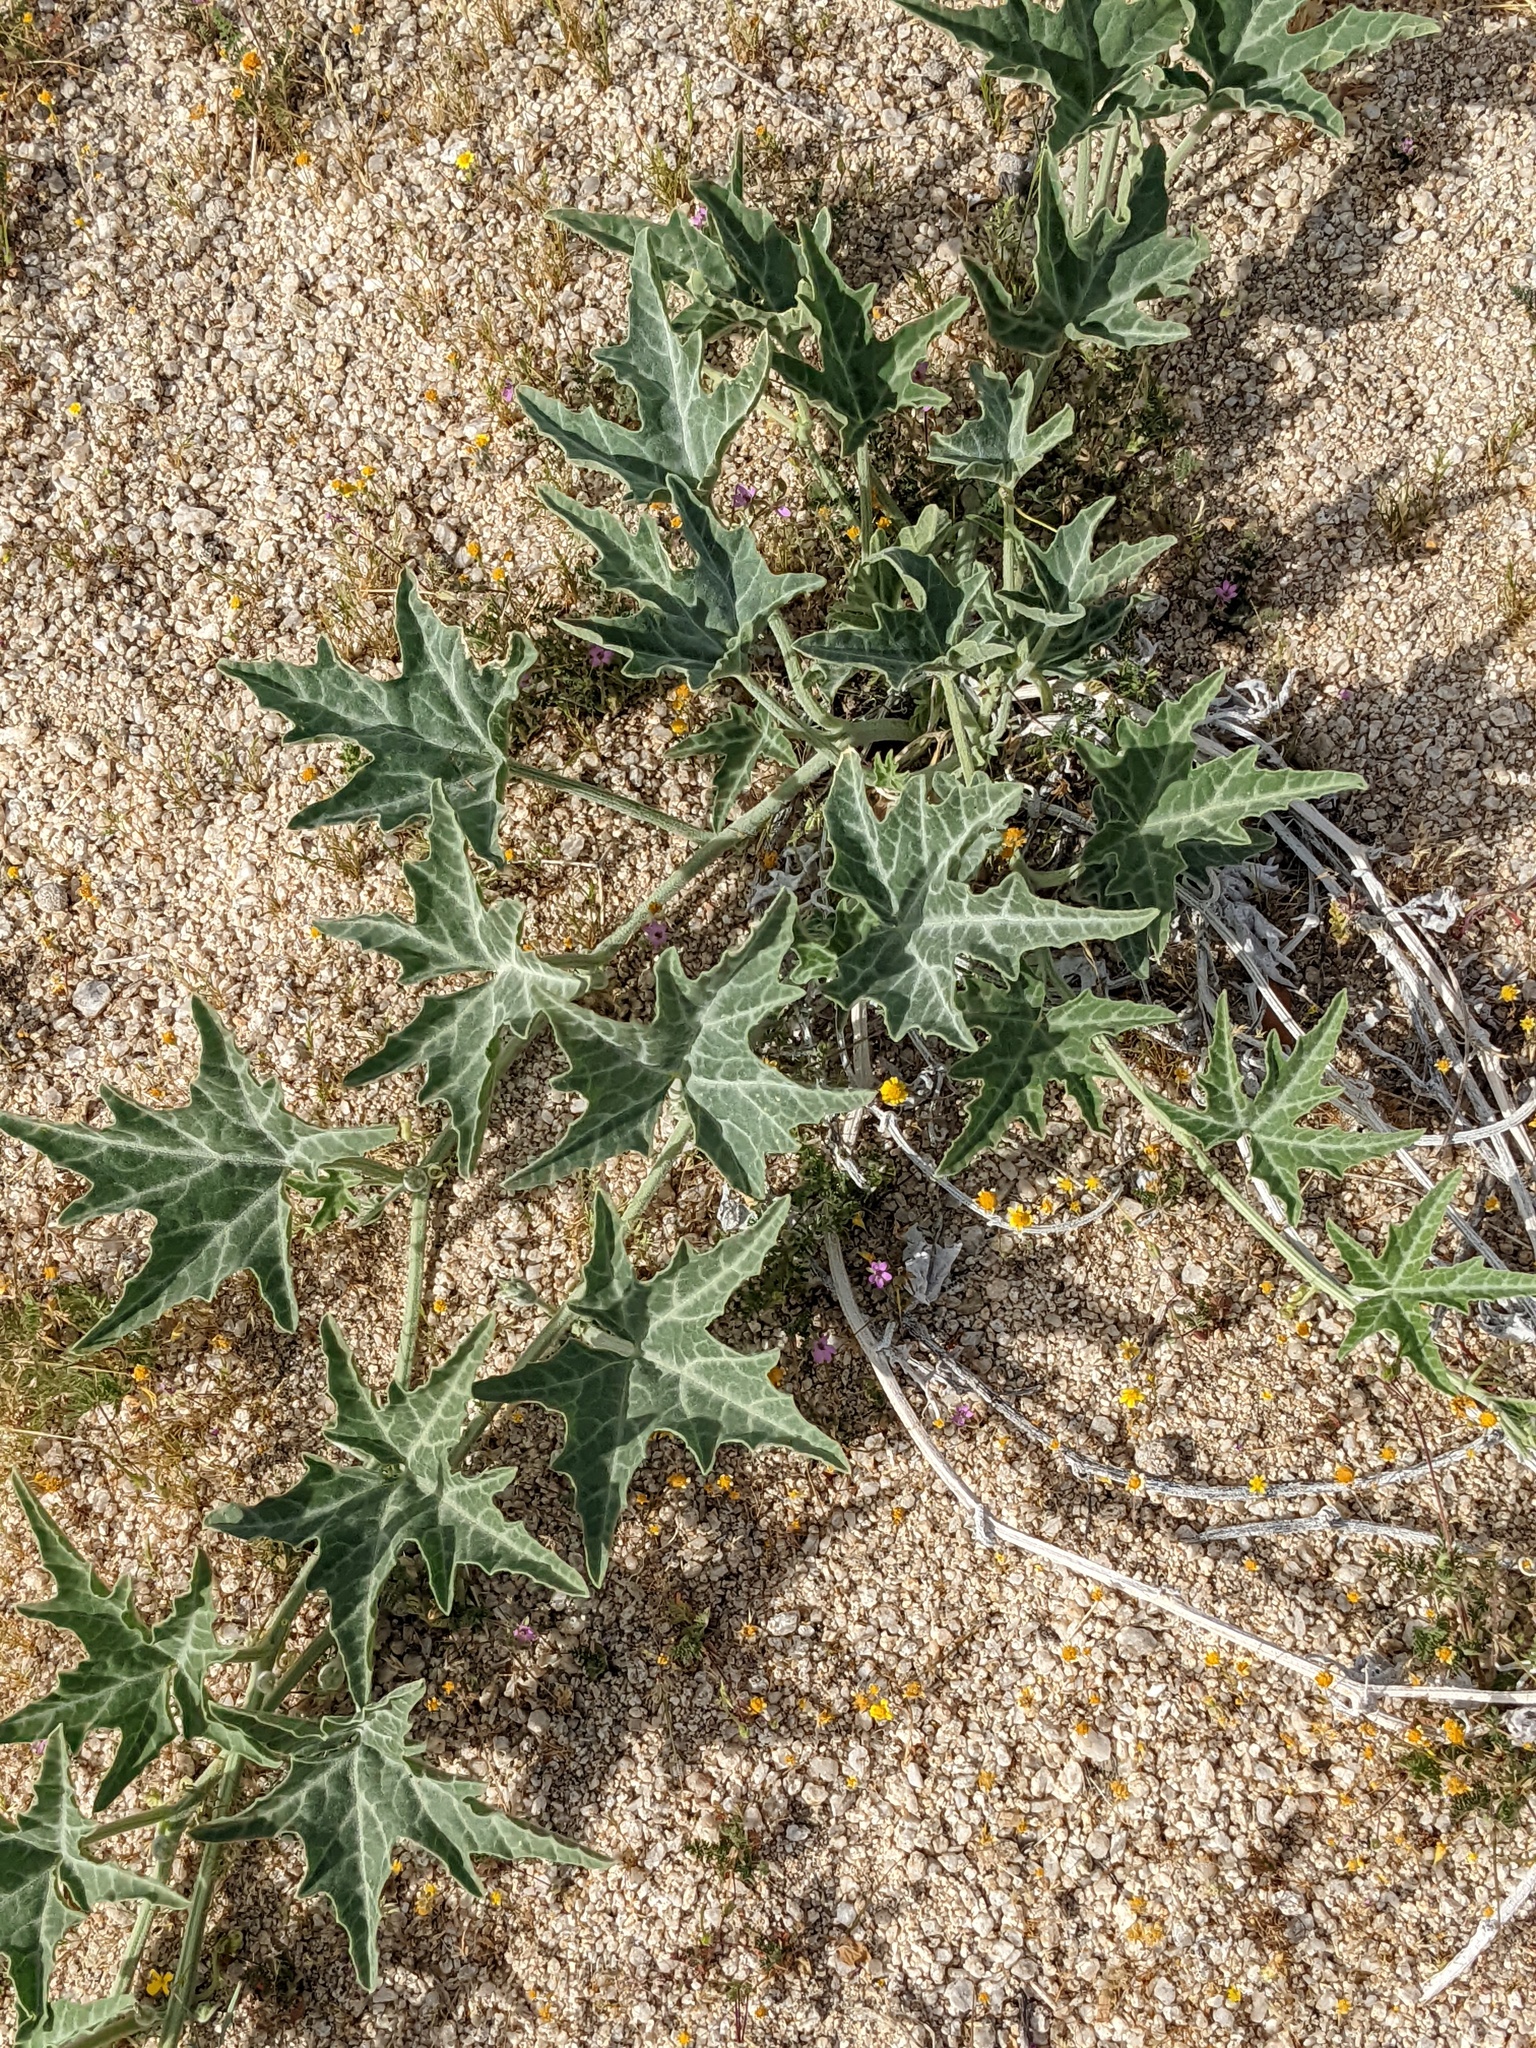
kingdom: Plantae
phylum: Tracheophyta
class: Magnoliopsida
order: Cucurbitales
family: Cucurbitaceae
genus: Cucurbita
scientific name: Cucurbita palmata
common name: Coyote-melon
